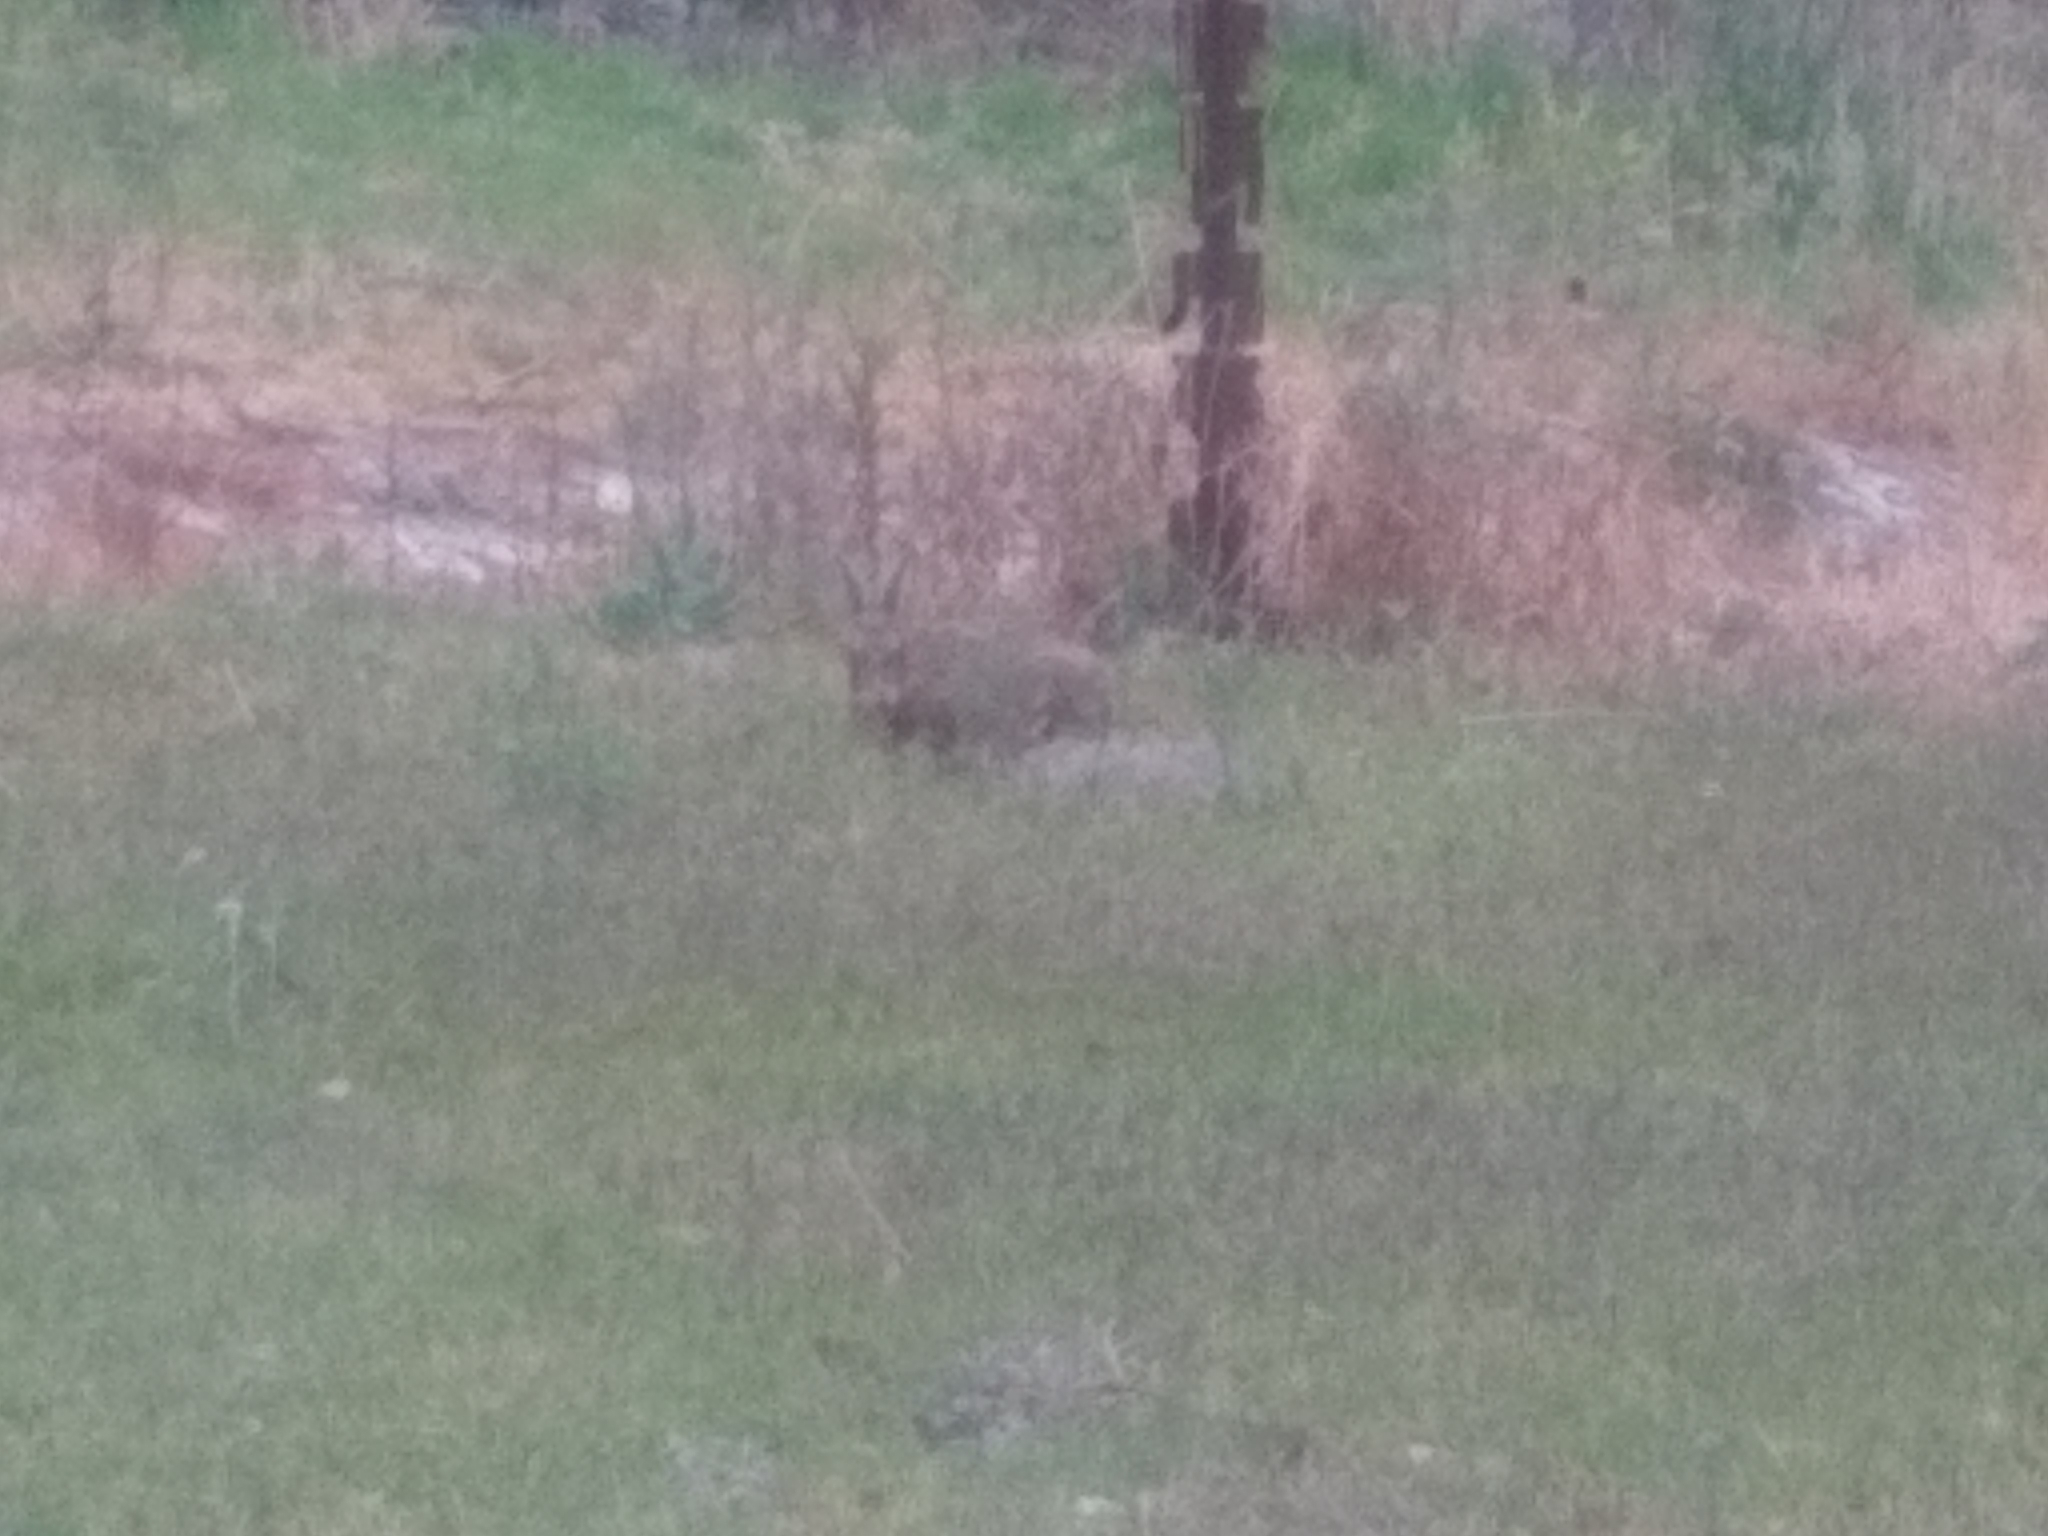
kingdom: Animalia
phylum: Chordata
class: Mammalia
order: Lagomorpha
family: Leporidae
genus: Lepus
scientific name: Lepus europaeus
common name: European hare
